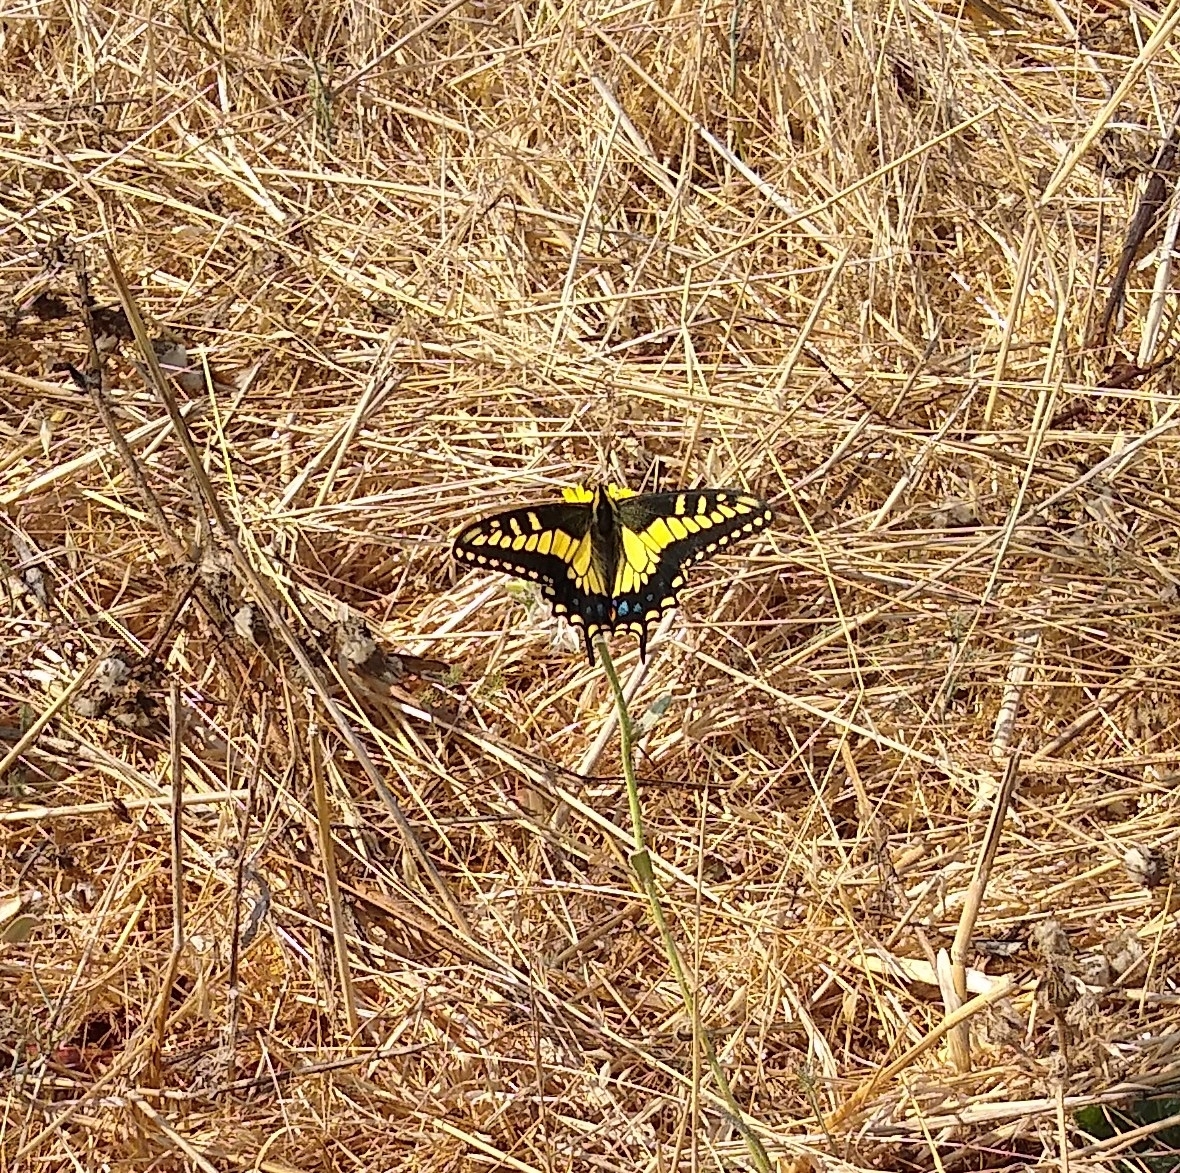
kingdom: Animalia
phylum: Arthropoda
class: Insecta
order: Lepidoptera
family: Papilionidae
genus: Papilio
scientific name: Papilio zelicaon
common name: Anise swallowtail
